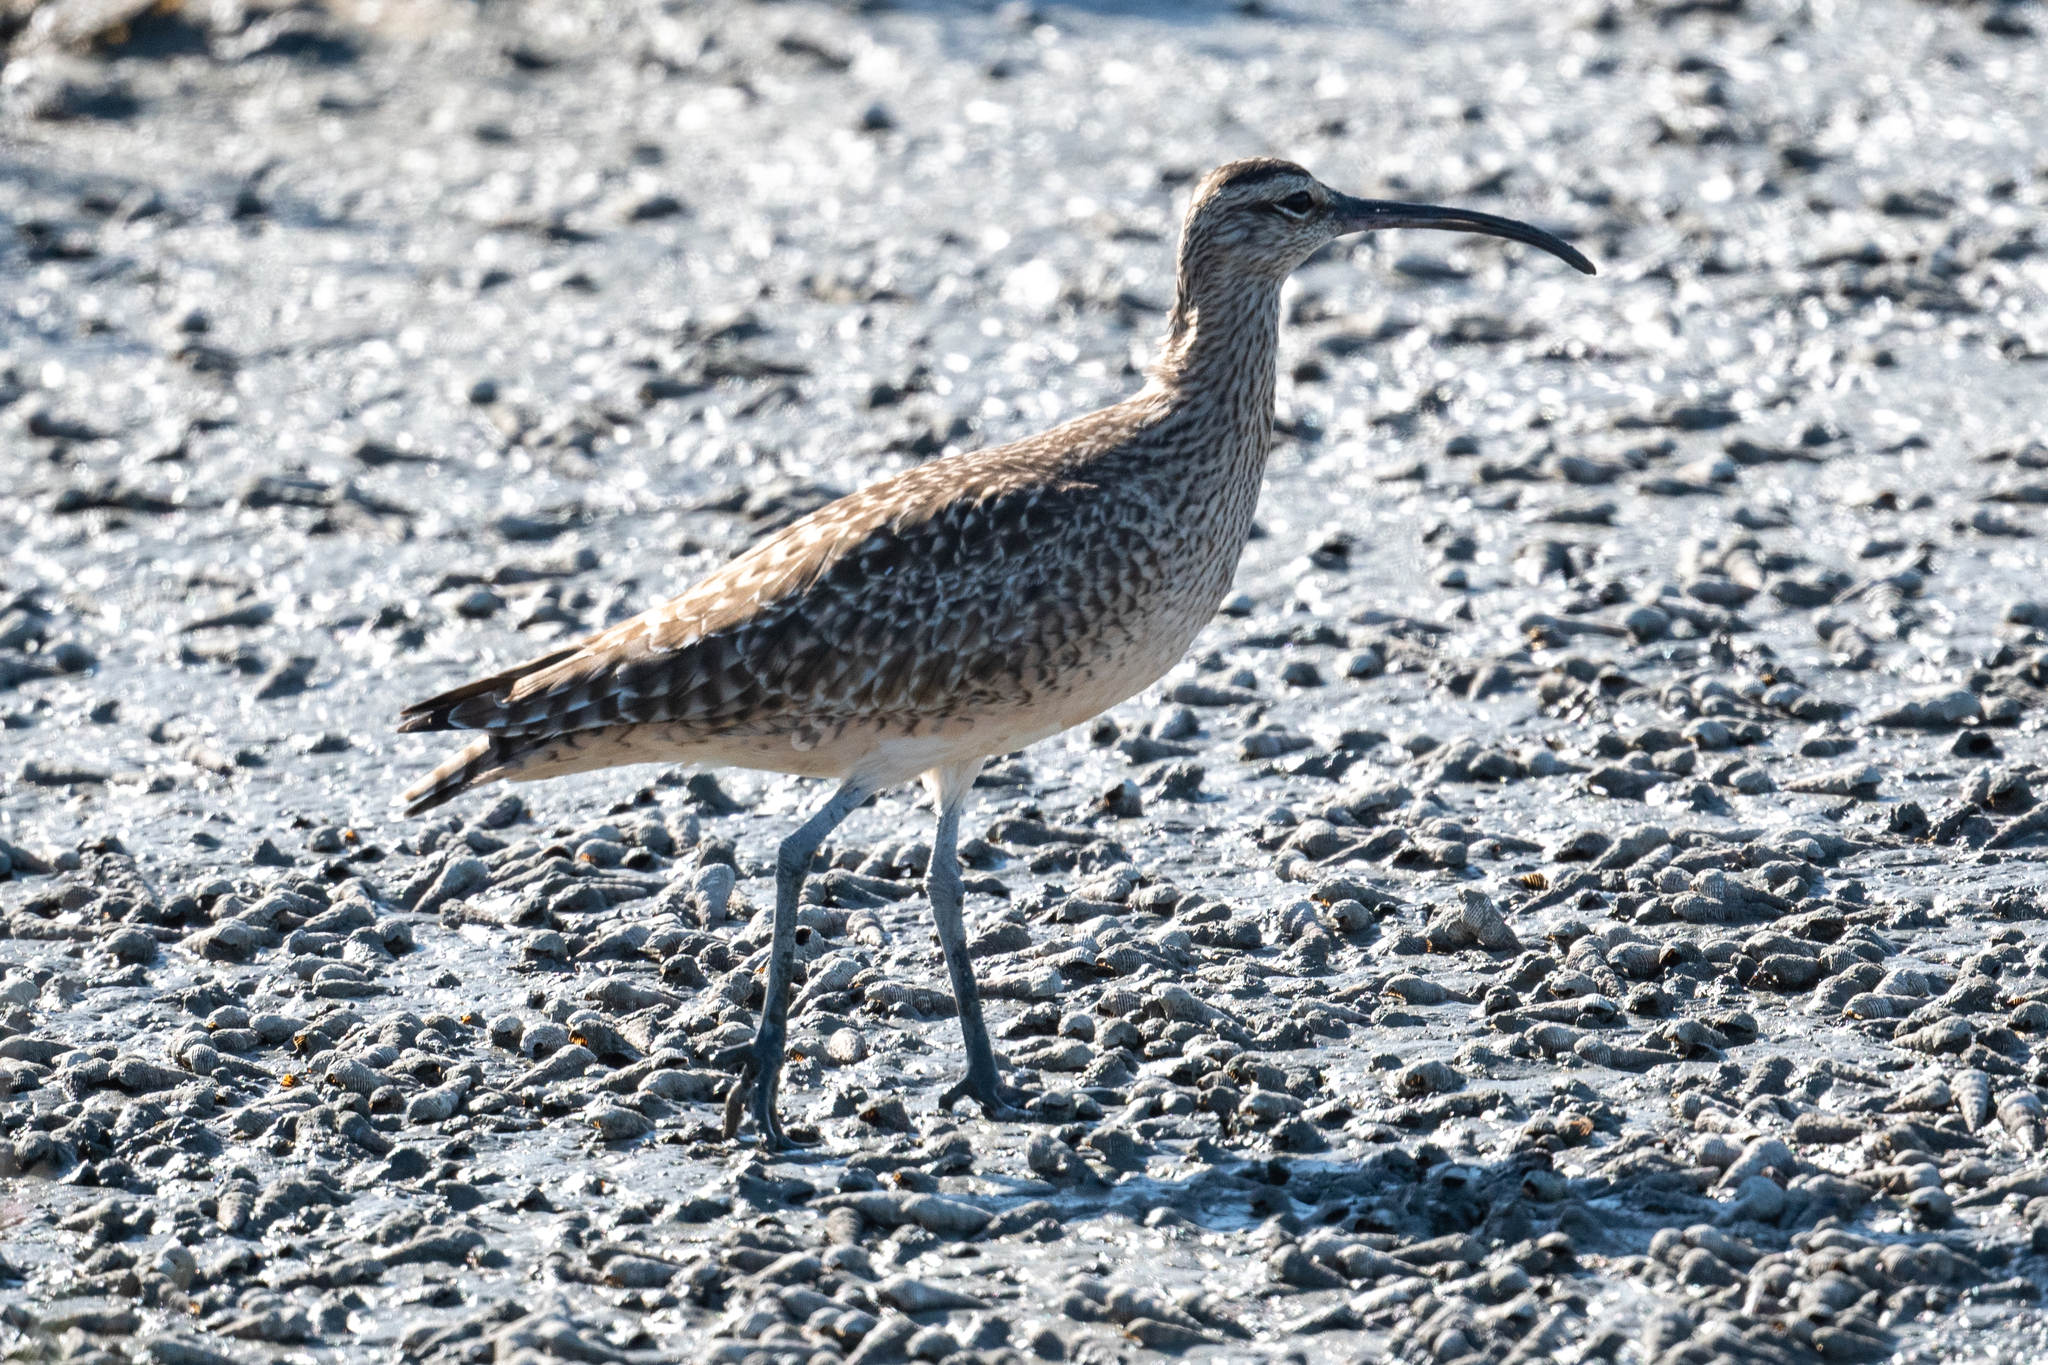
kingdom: Animalia
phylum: Chordata
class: Aves
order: Charadriiformes
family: Scolopacidae
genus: Numenius
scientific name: Numenius phaeopus
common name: Whimbrel
